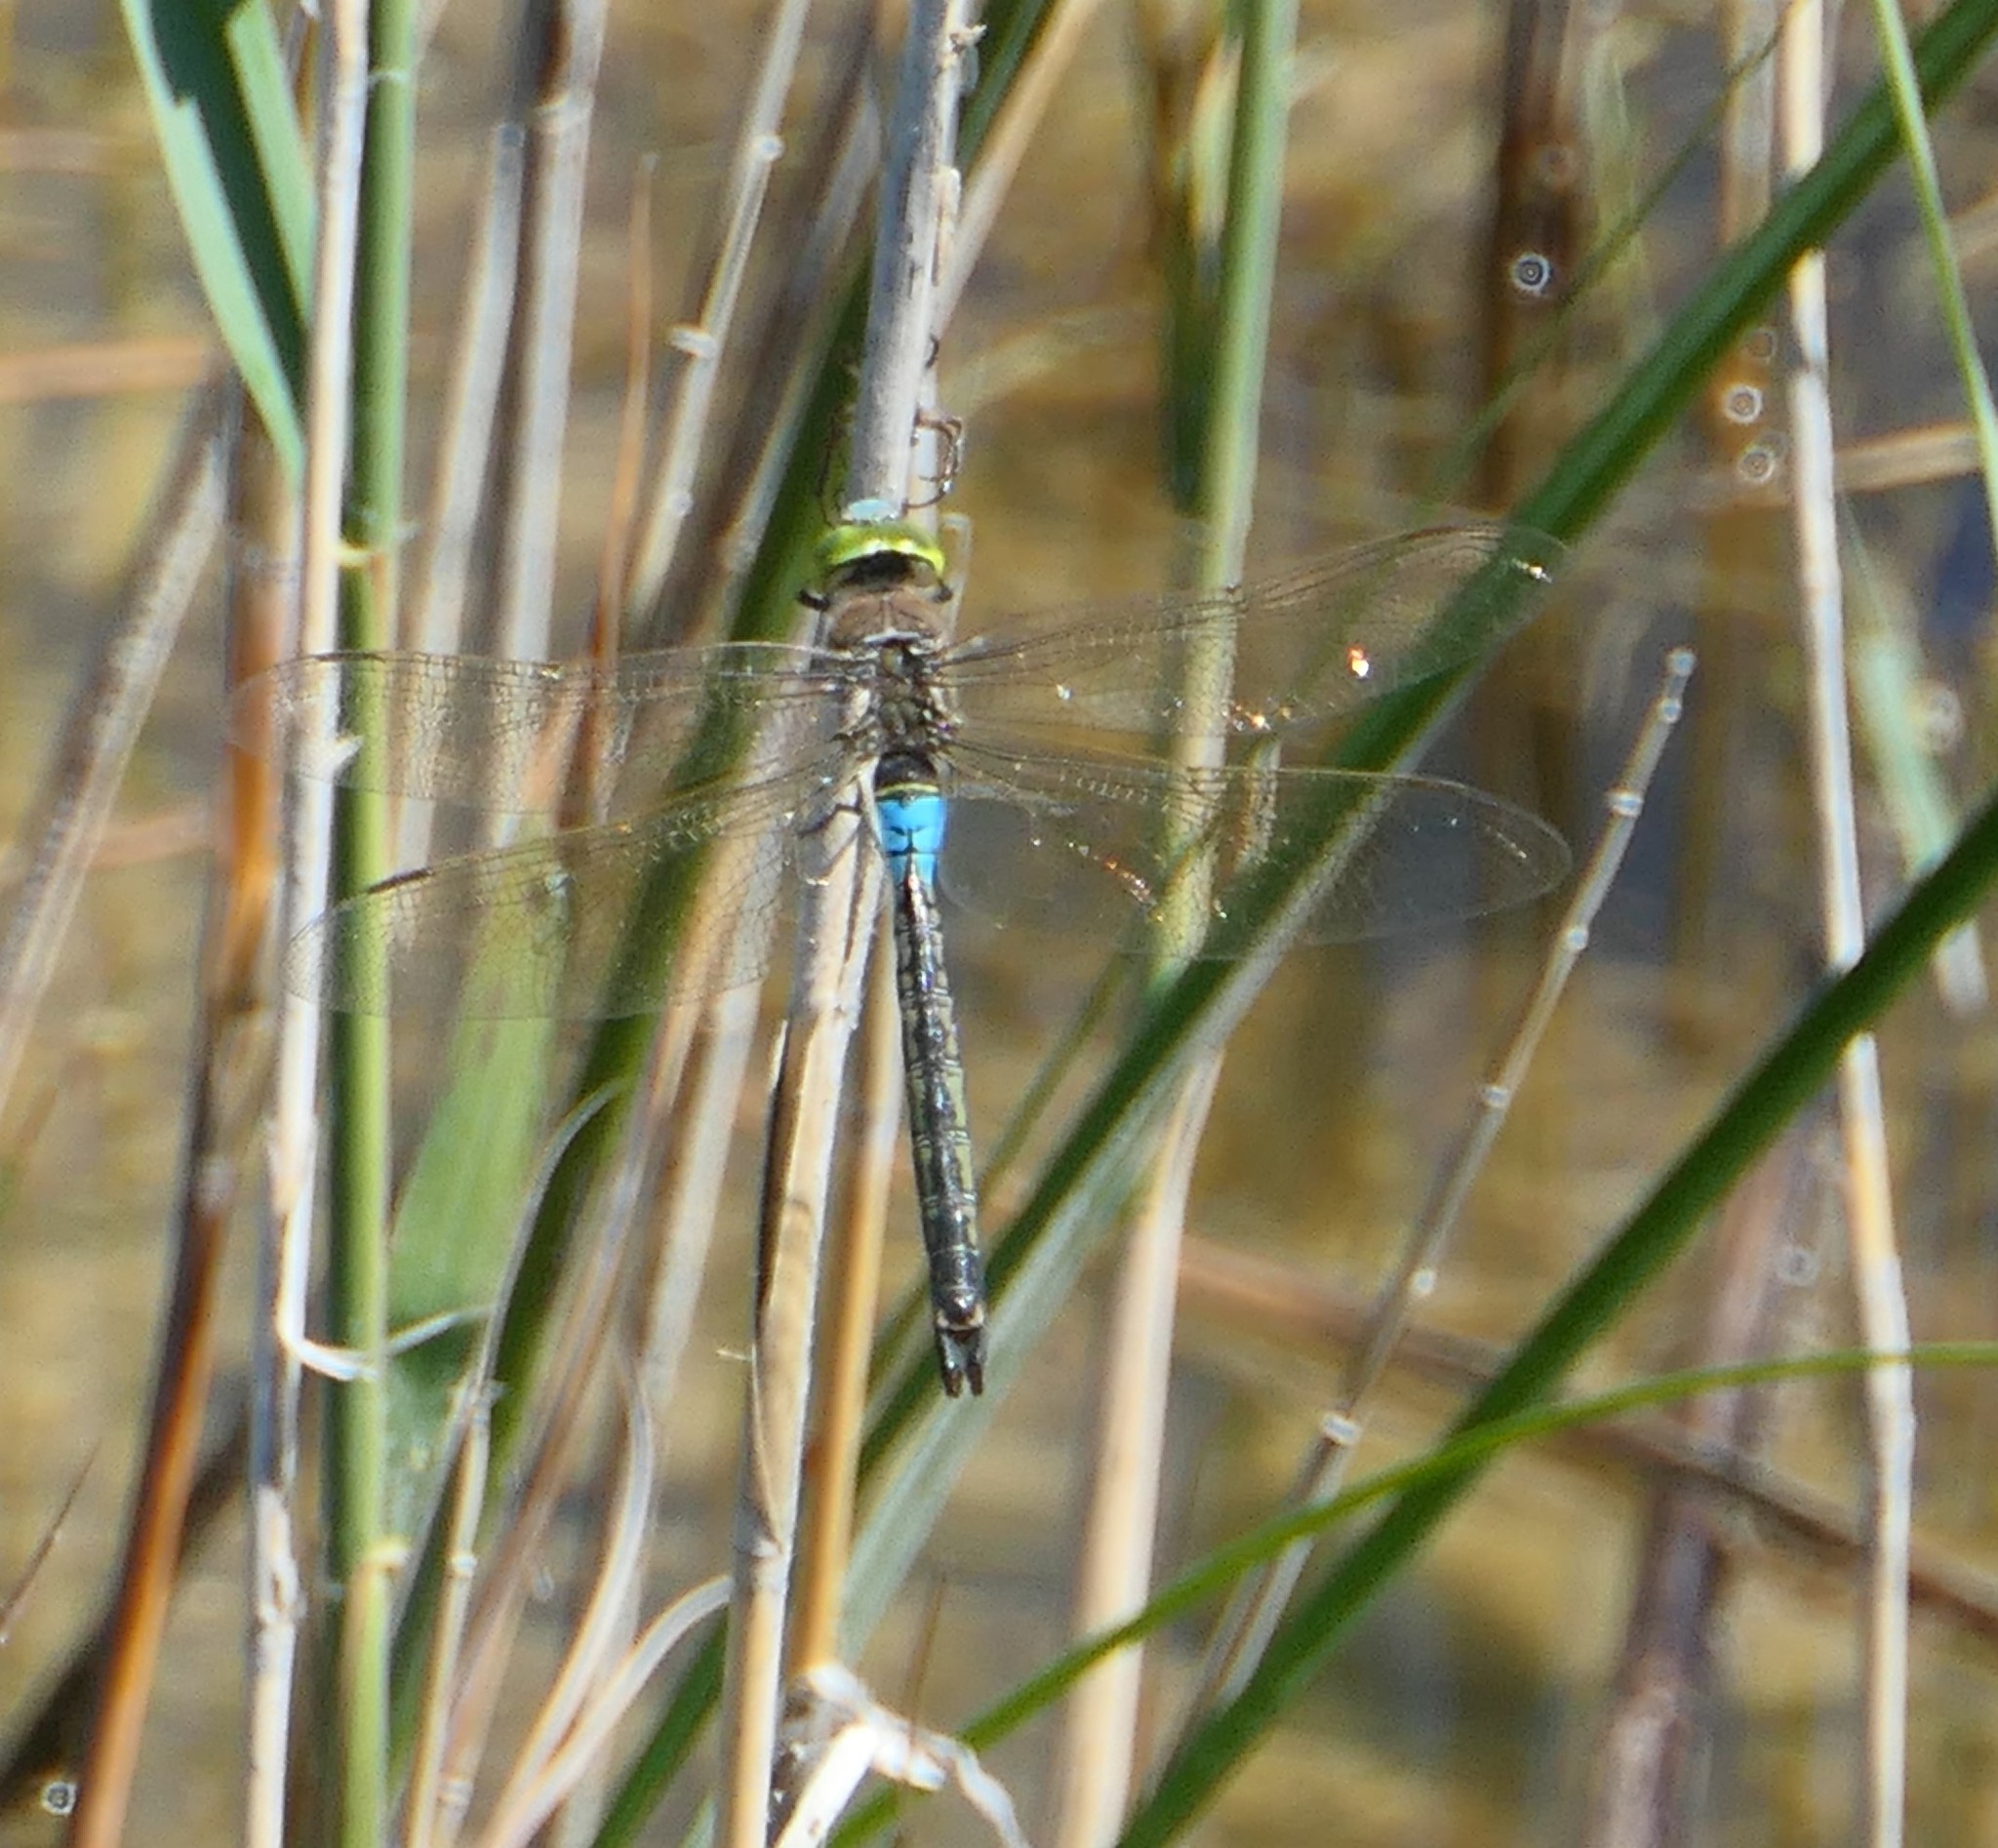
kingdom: Animalia
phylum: Arthropoda
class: Insecta
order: Odonata
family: Aeshnidae
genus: Anax
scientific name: Anax parthenope
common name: Lesser emperor
